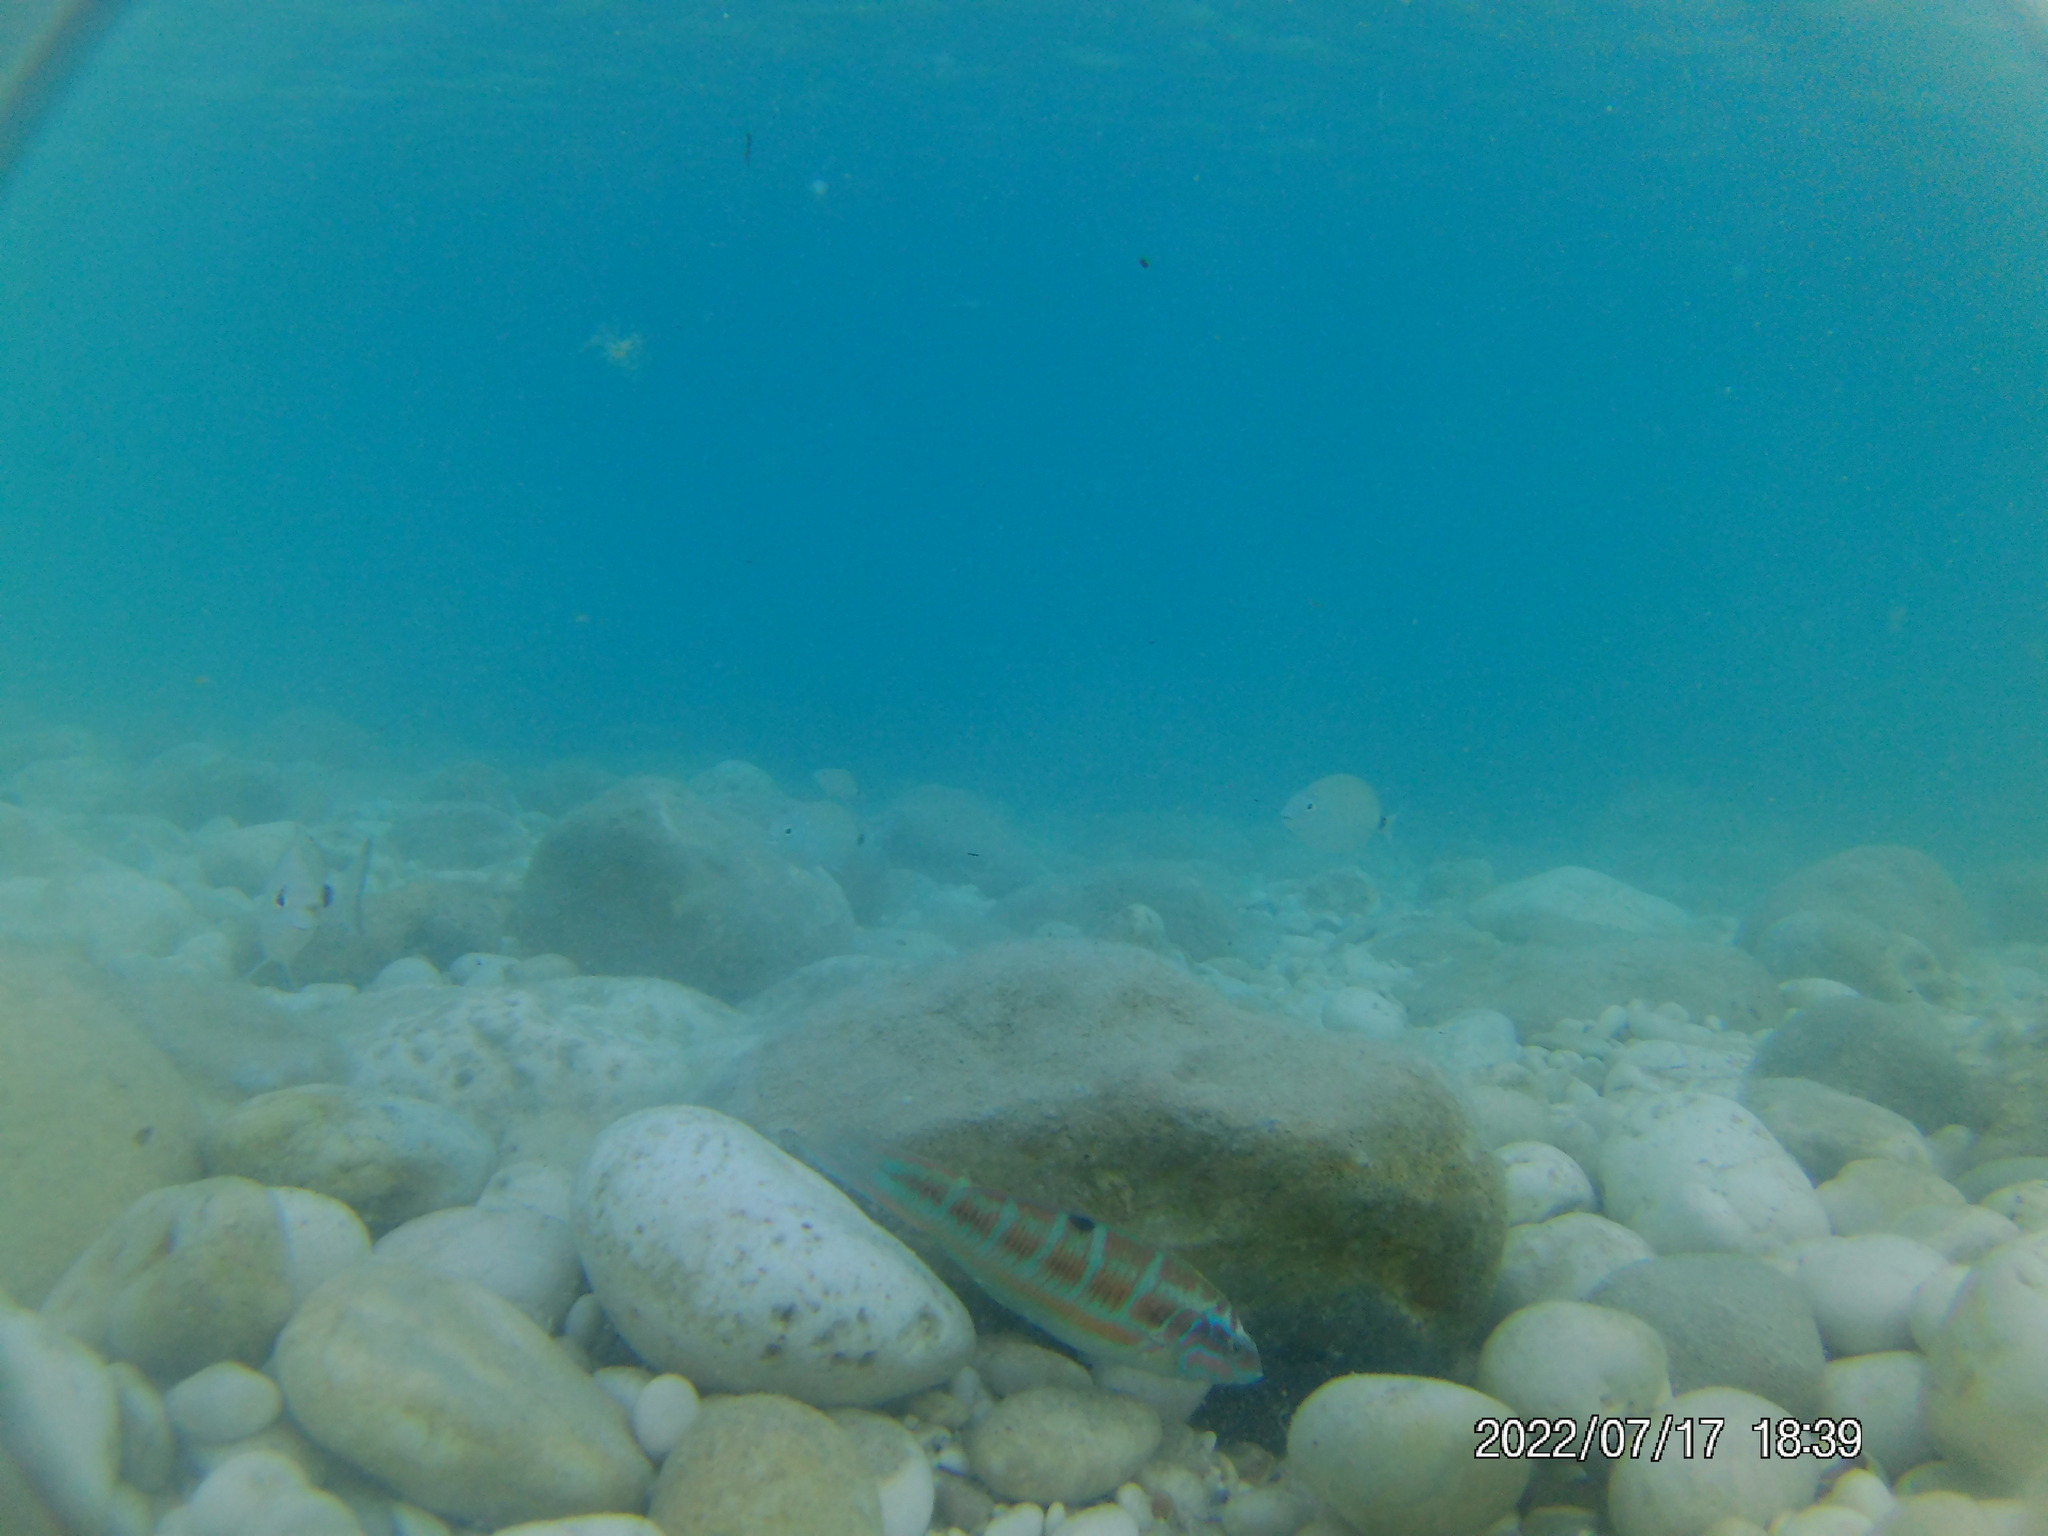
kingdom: Animalia
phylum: Chordata
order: Perciformes
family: Labridae
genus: Thalassoma
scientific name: Thalassoma pavo
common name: Ornate wrasse
